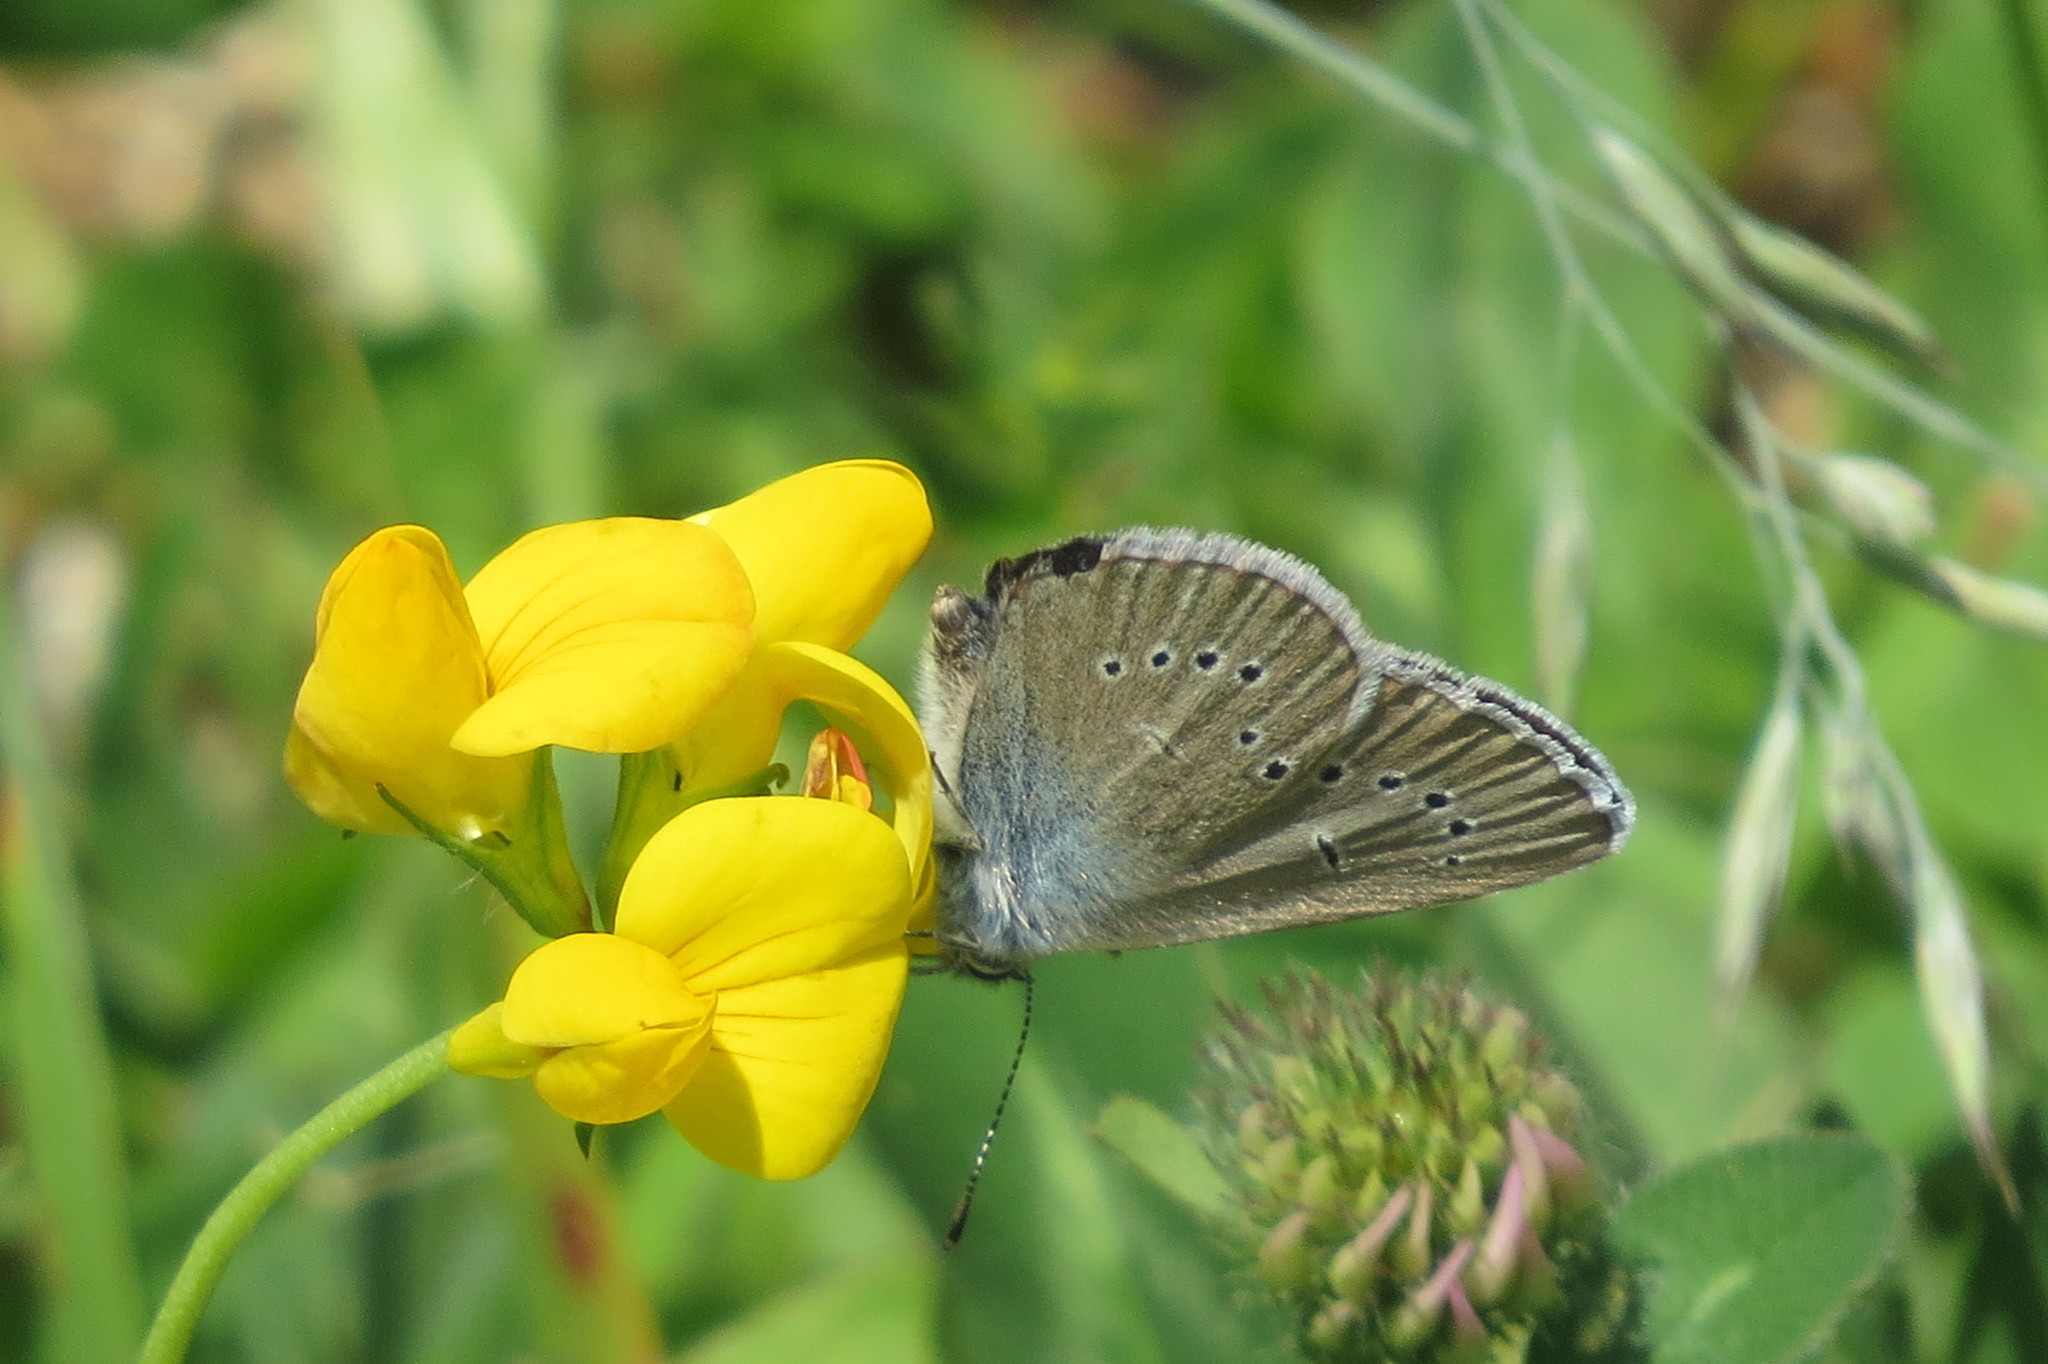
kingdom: Animalia
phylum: Arthropoda
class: Insecta
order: Lepidoptera
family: Lycaenidae
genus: Cyaniris
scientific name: Cyaniris semiargus
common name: Mazarine blue
